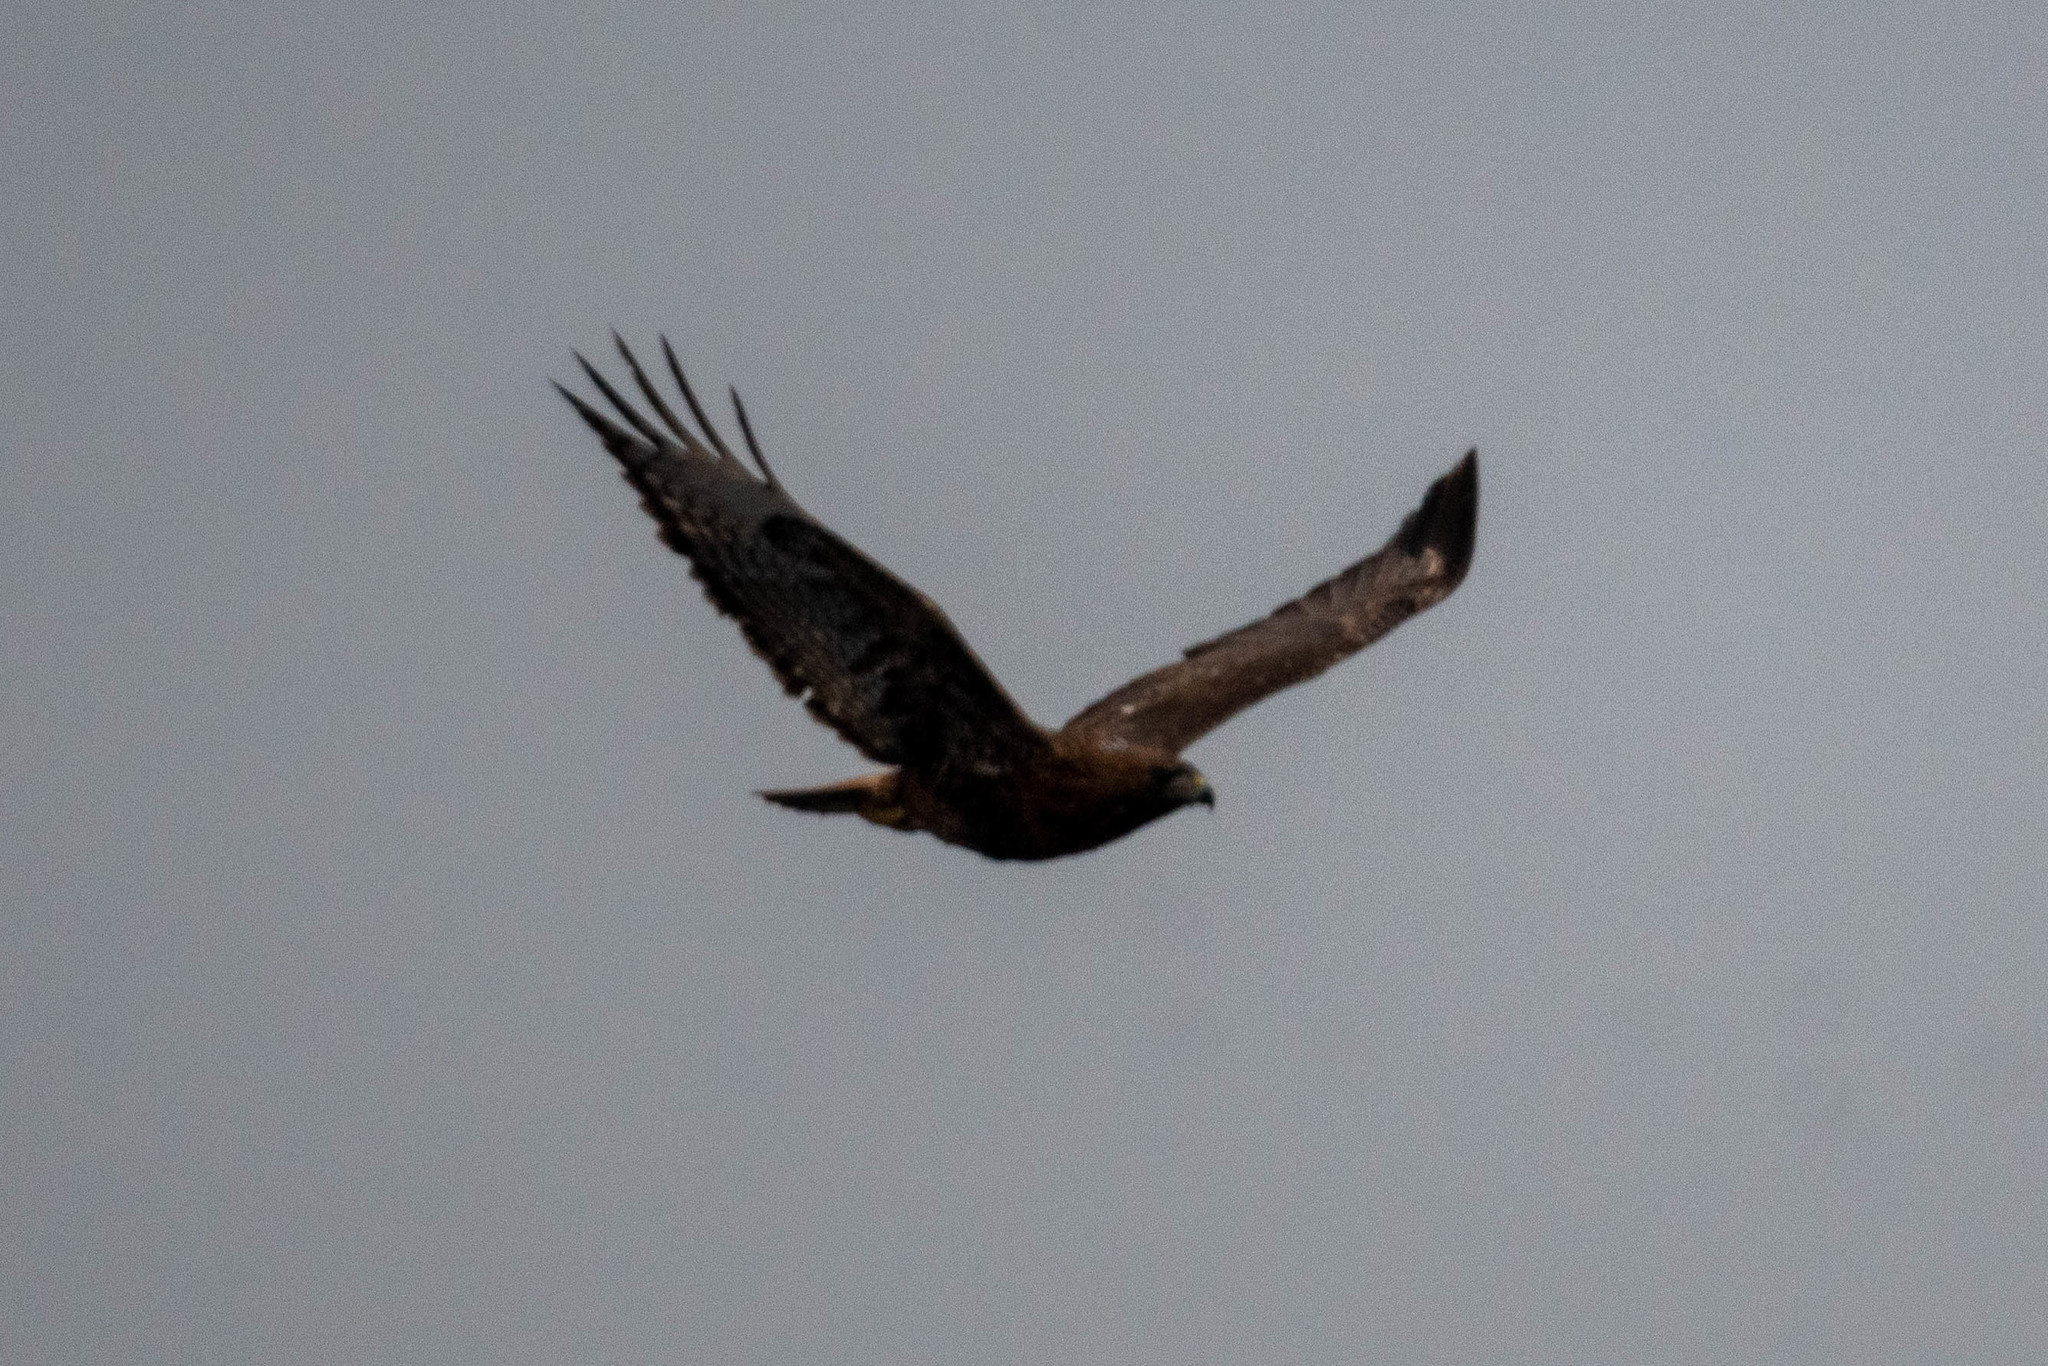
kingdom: Animalia
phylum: Chordata
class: Aves
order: Accipitriformes
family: Accipitridae
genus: Buteo
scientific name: Buteo jamaicensis
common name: Red-tailed hawk
